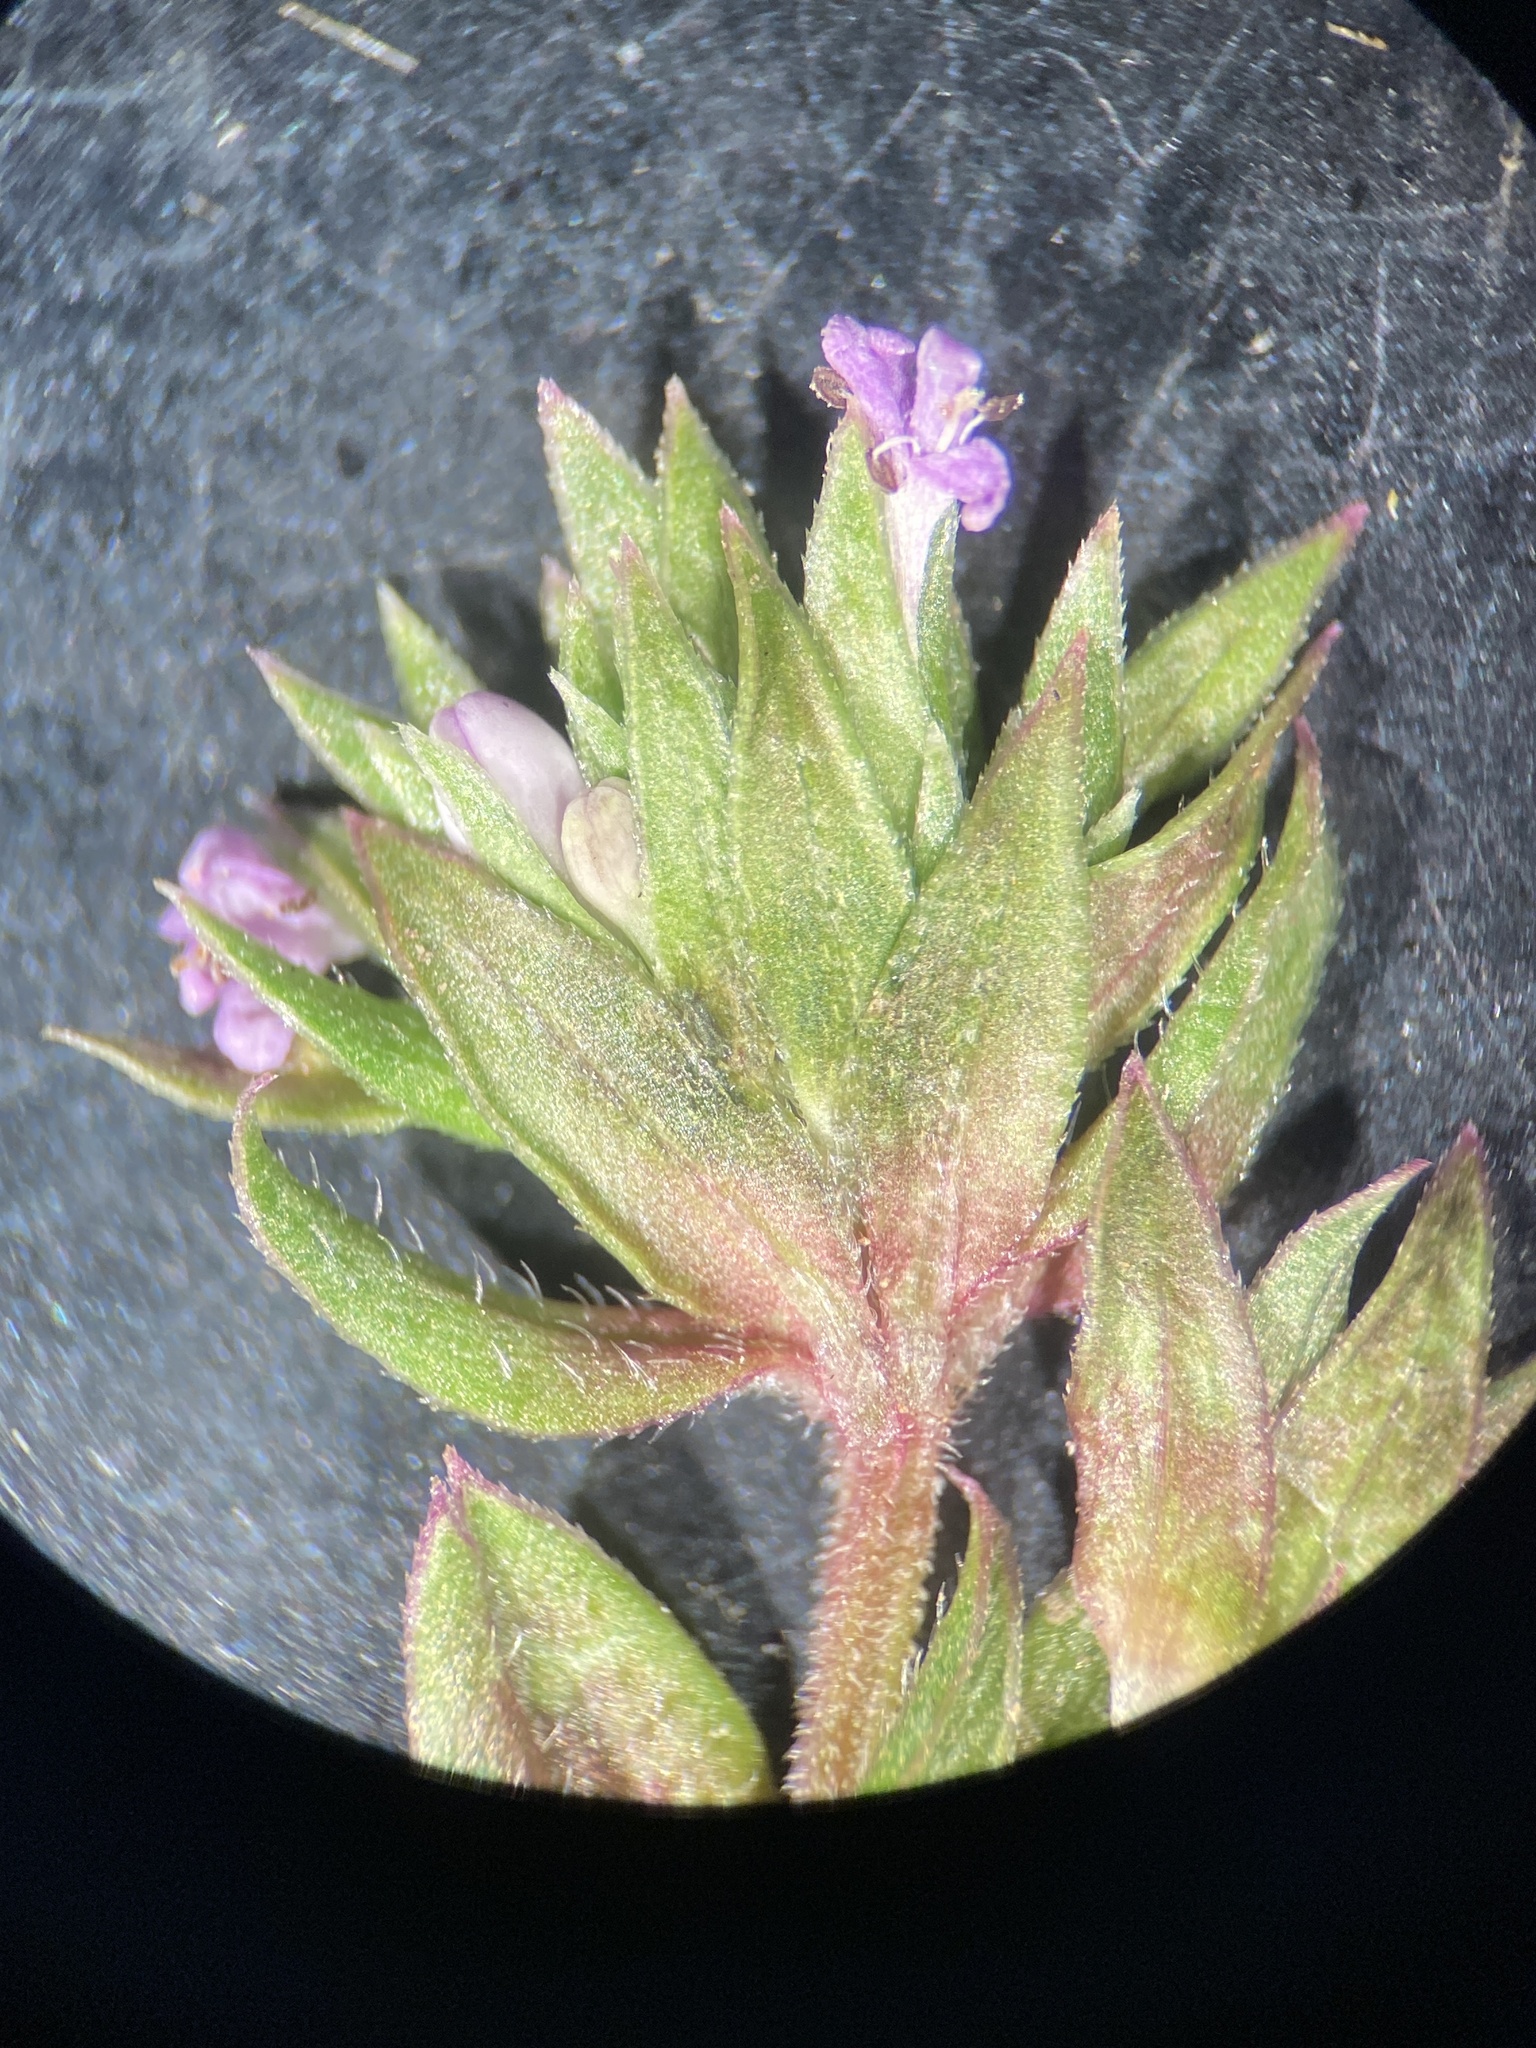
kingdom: Plantae
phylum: Tracheophyta
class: Magnoliopsida
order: Gentianales
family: Rubiaceae
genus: Sherardia
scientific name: Sherardia arvensis
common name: Field madder
